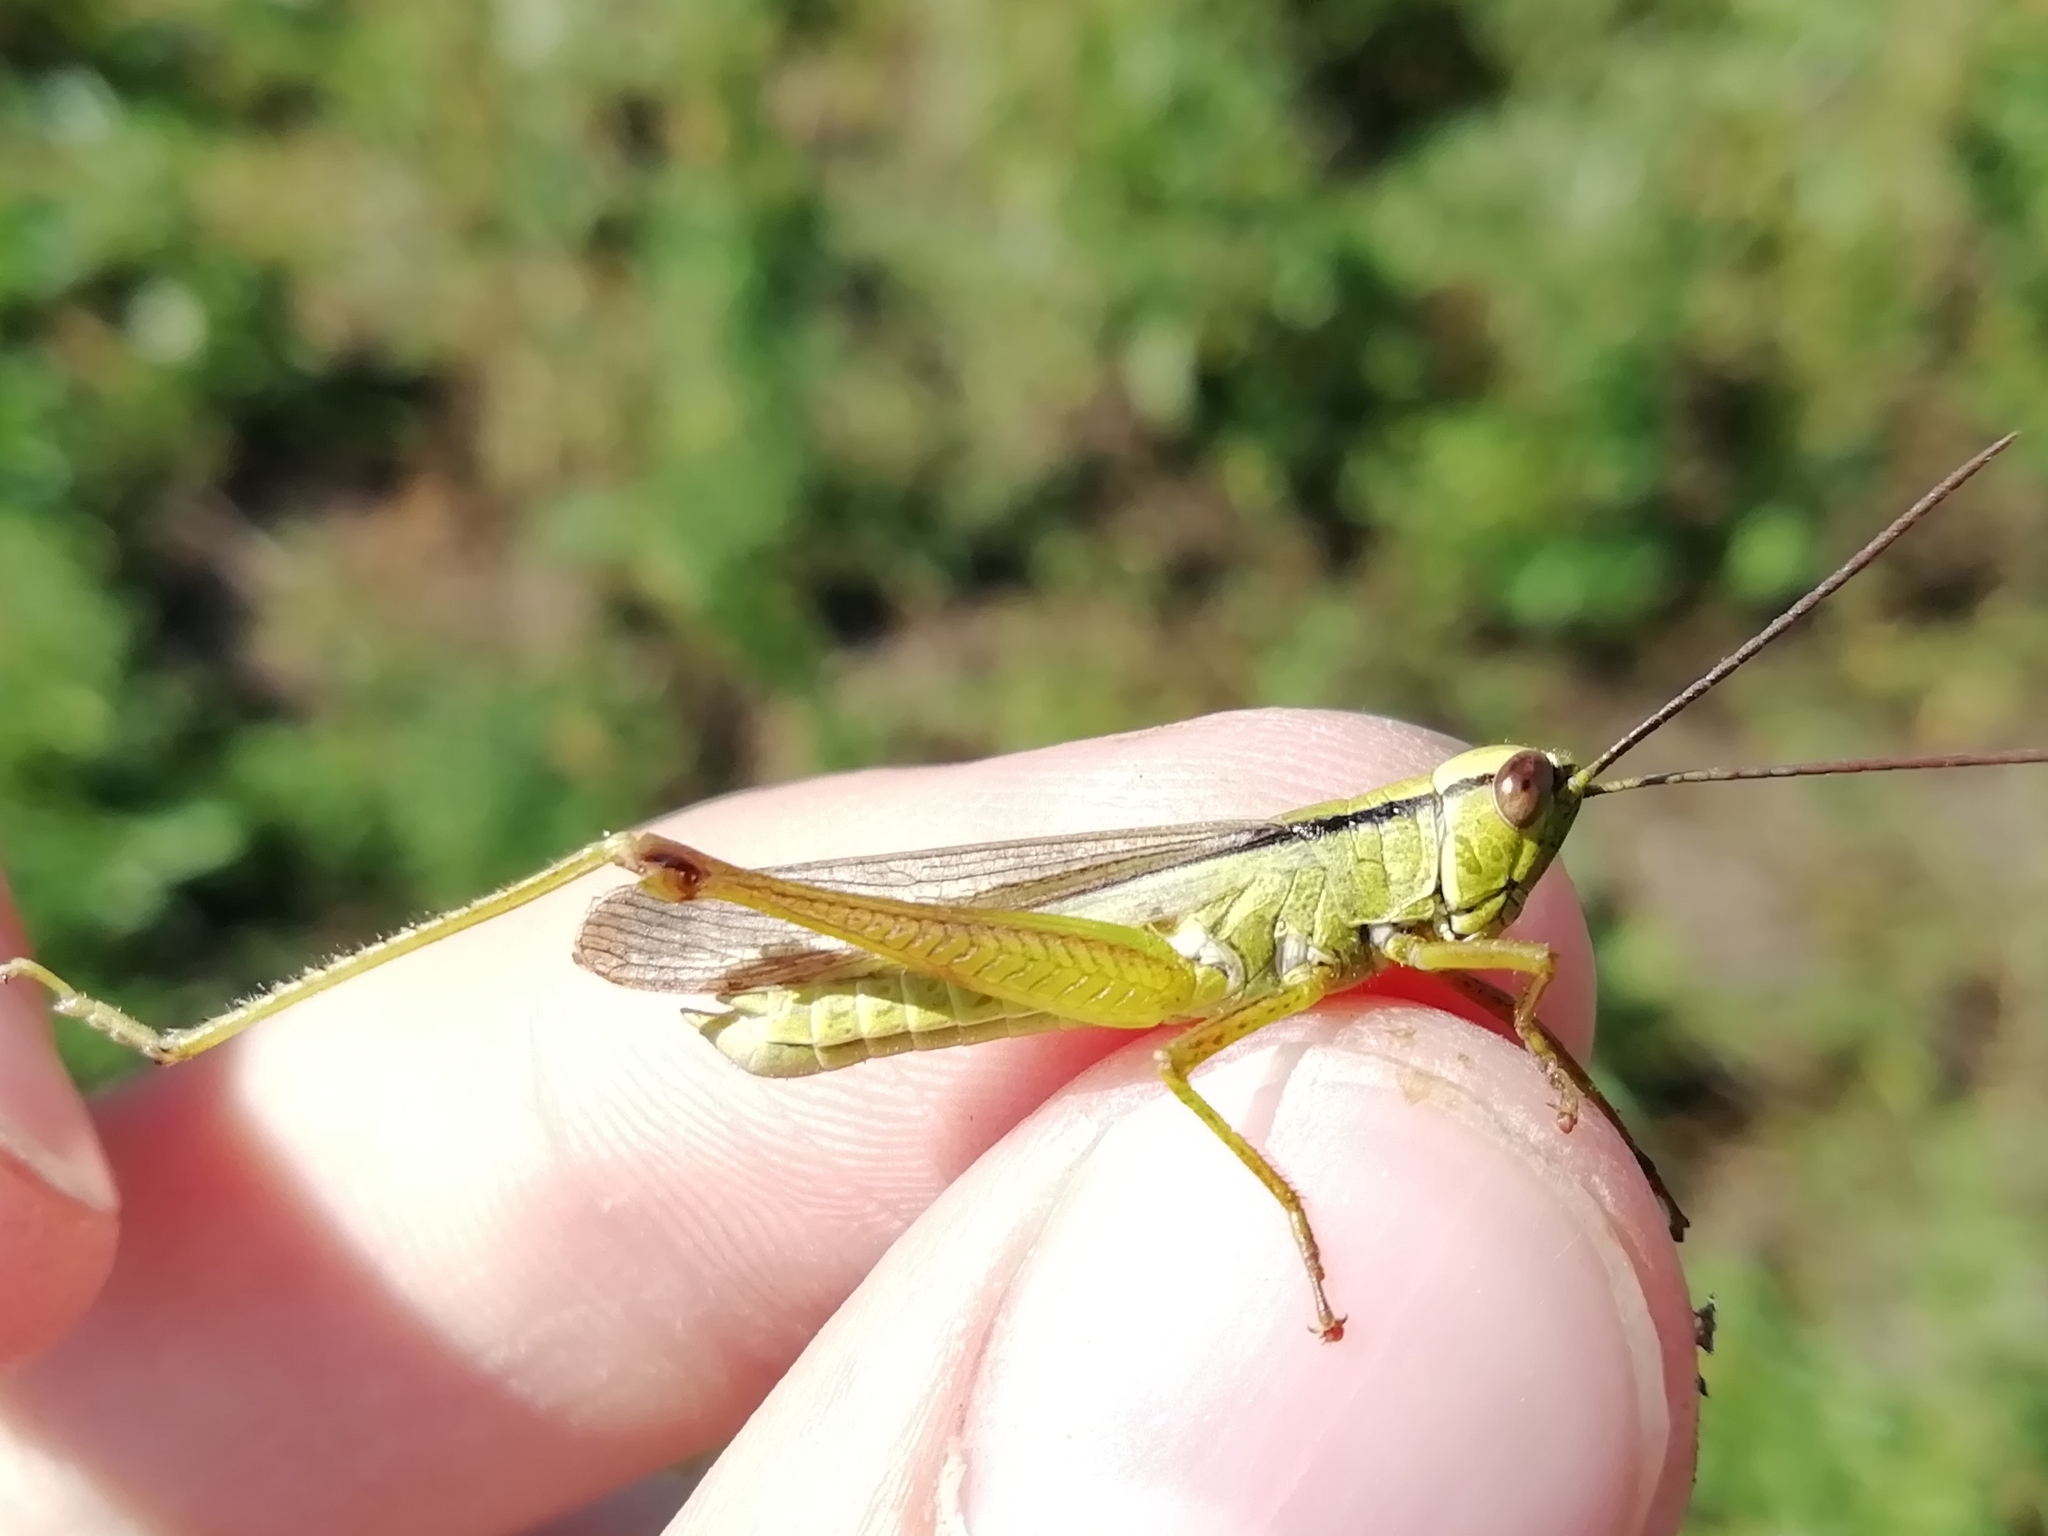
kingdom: Animalia
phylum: Arthropoda
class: Insecta
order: Orthoptera
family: Acrididae
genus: Mecostethus
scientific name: Mecostethus parapleurus
